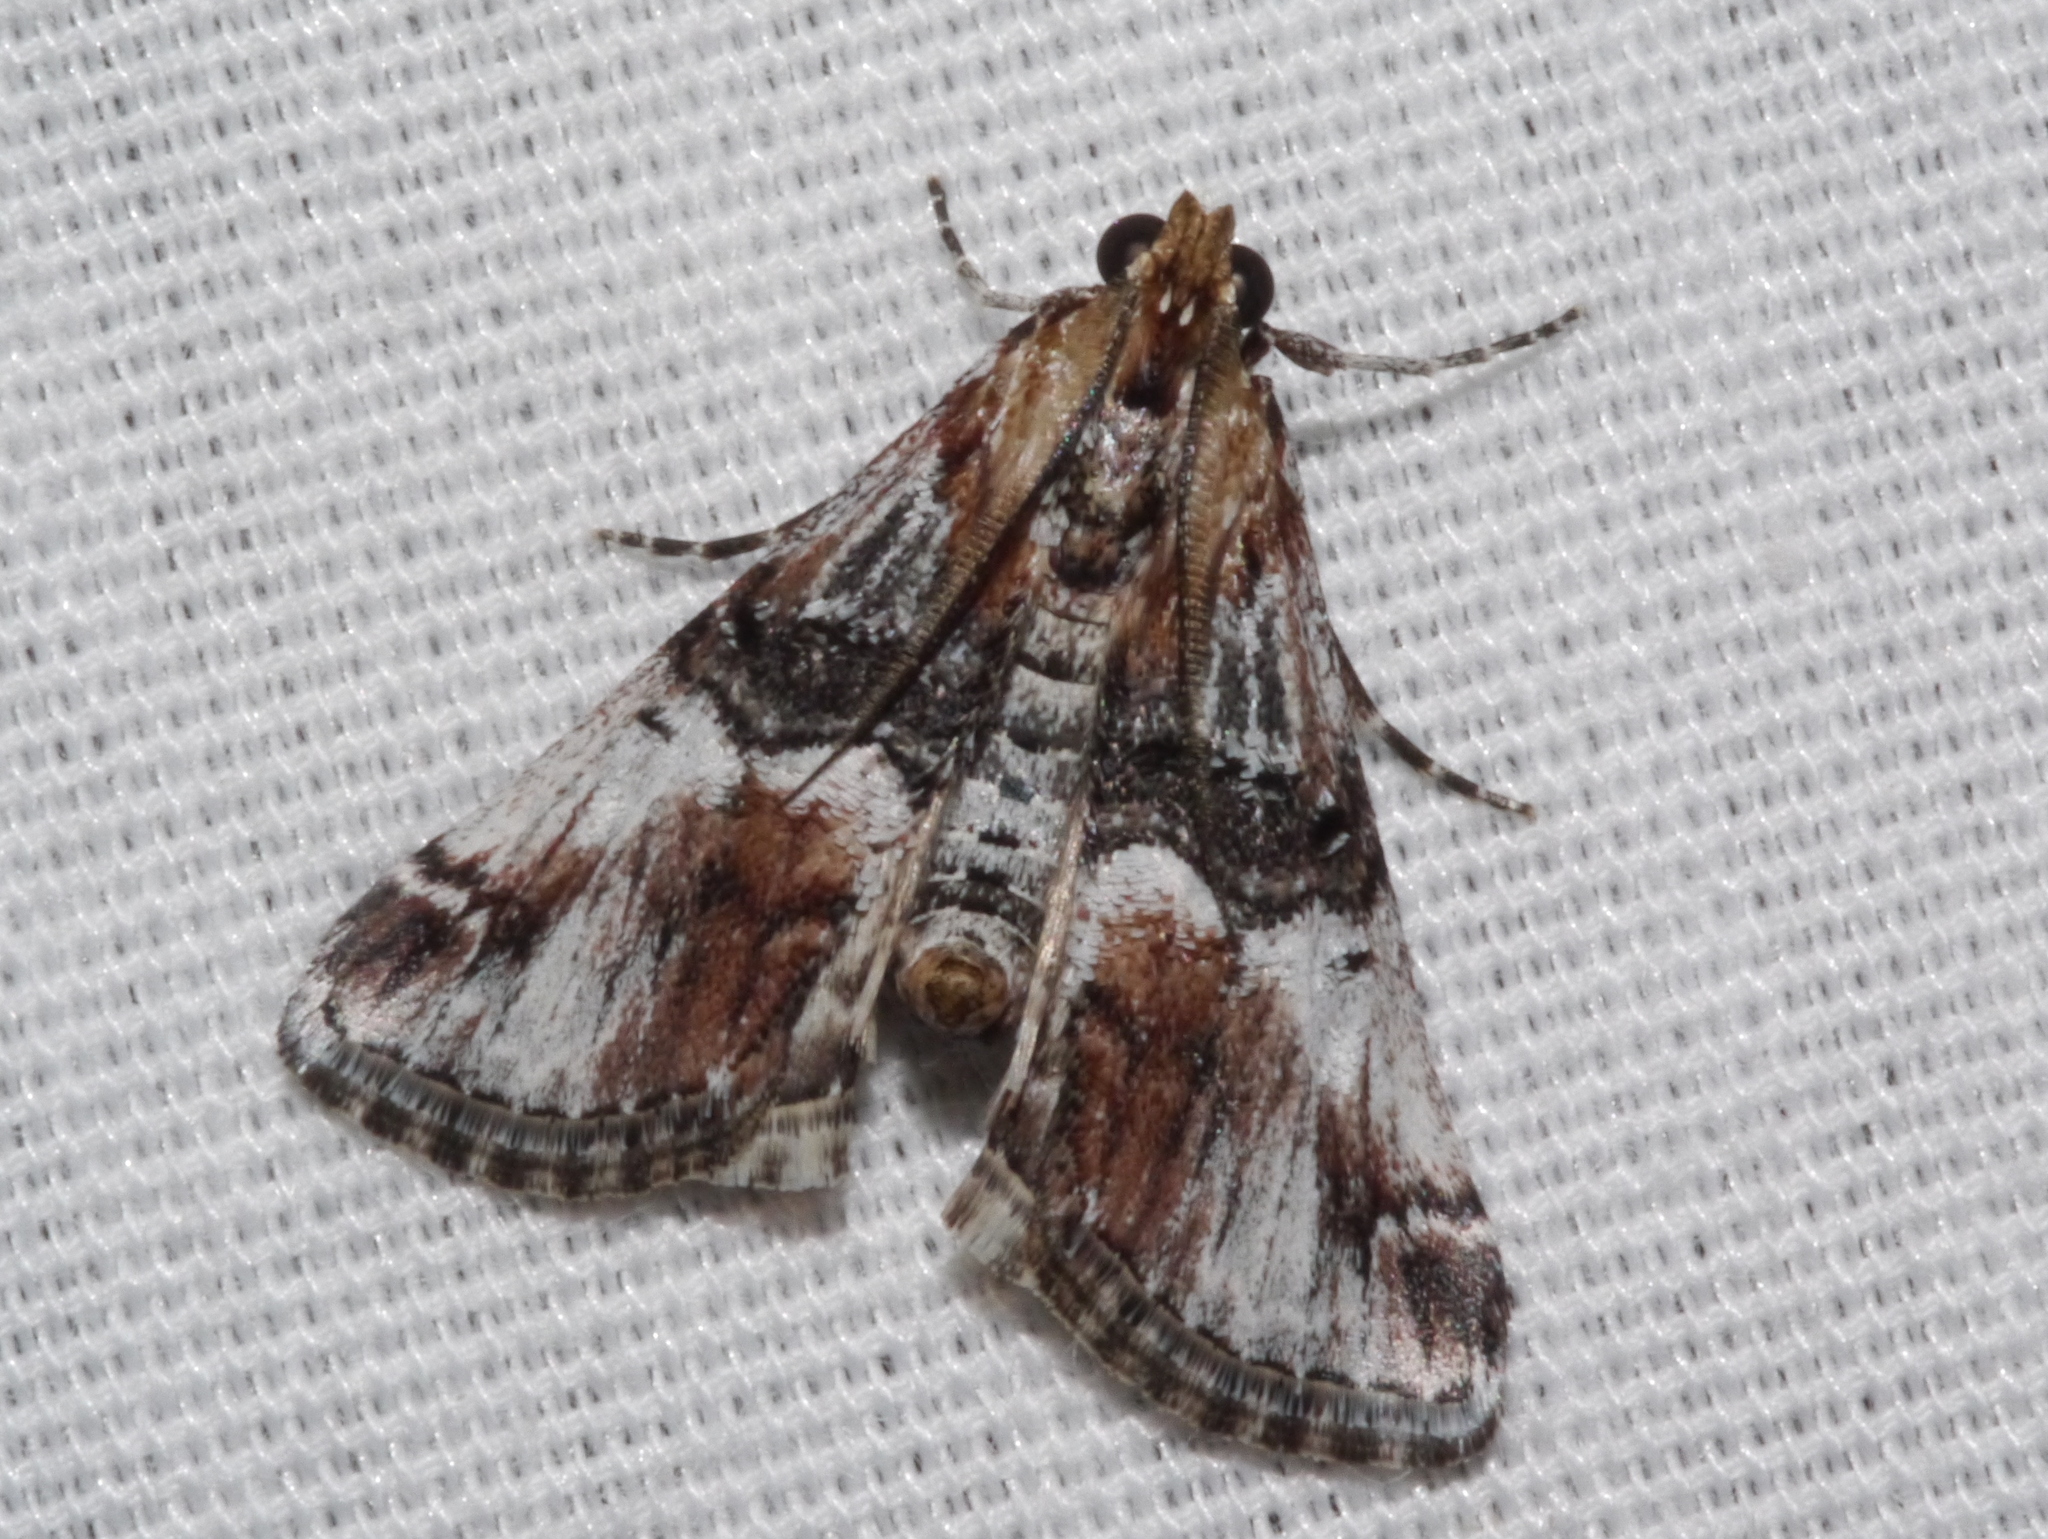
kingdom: Animalia
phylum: Arthropoda
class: Insecta
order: Lepidoptera
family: Pyralidae
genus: Toripalpus
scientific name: Toripalpus trabalis
